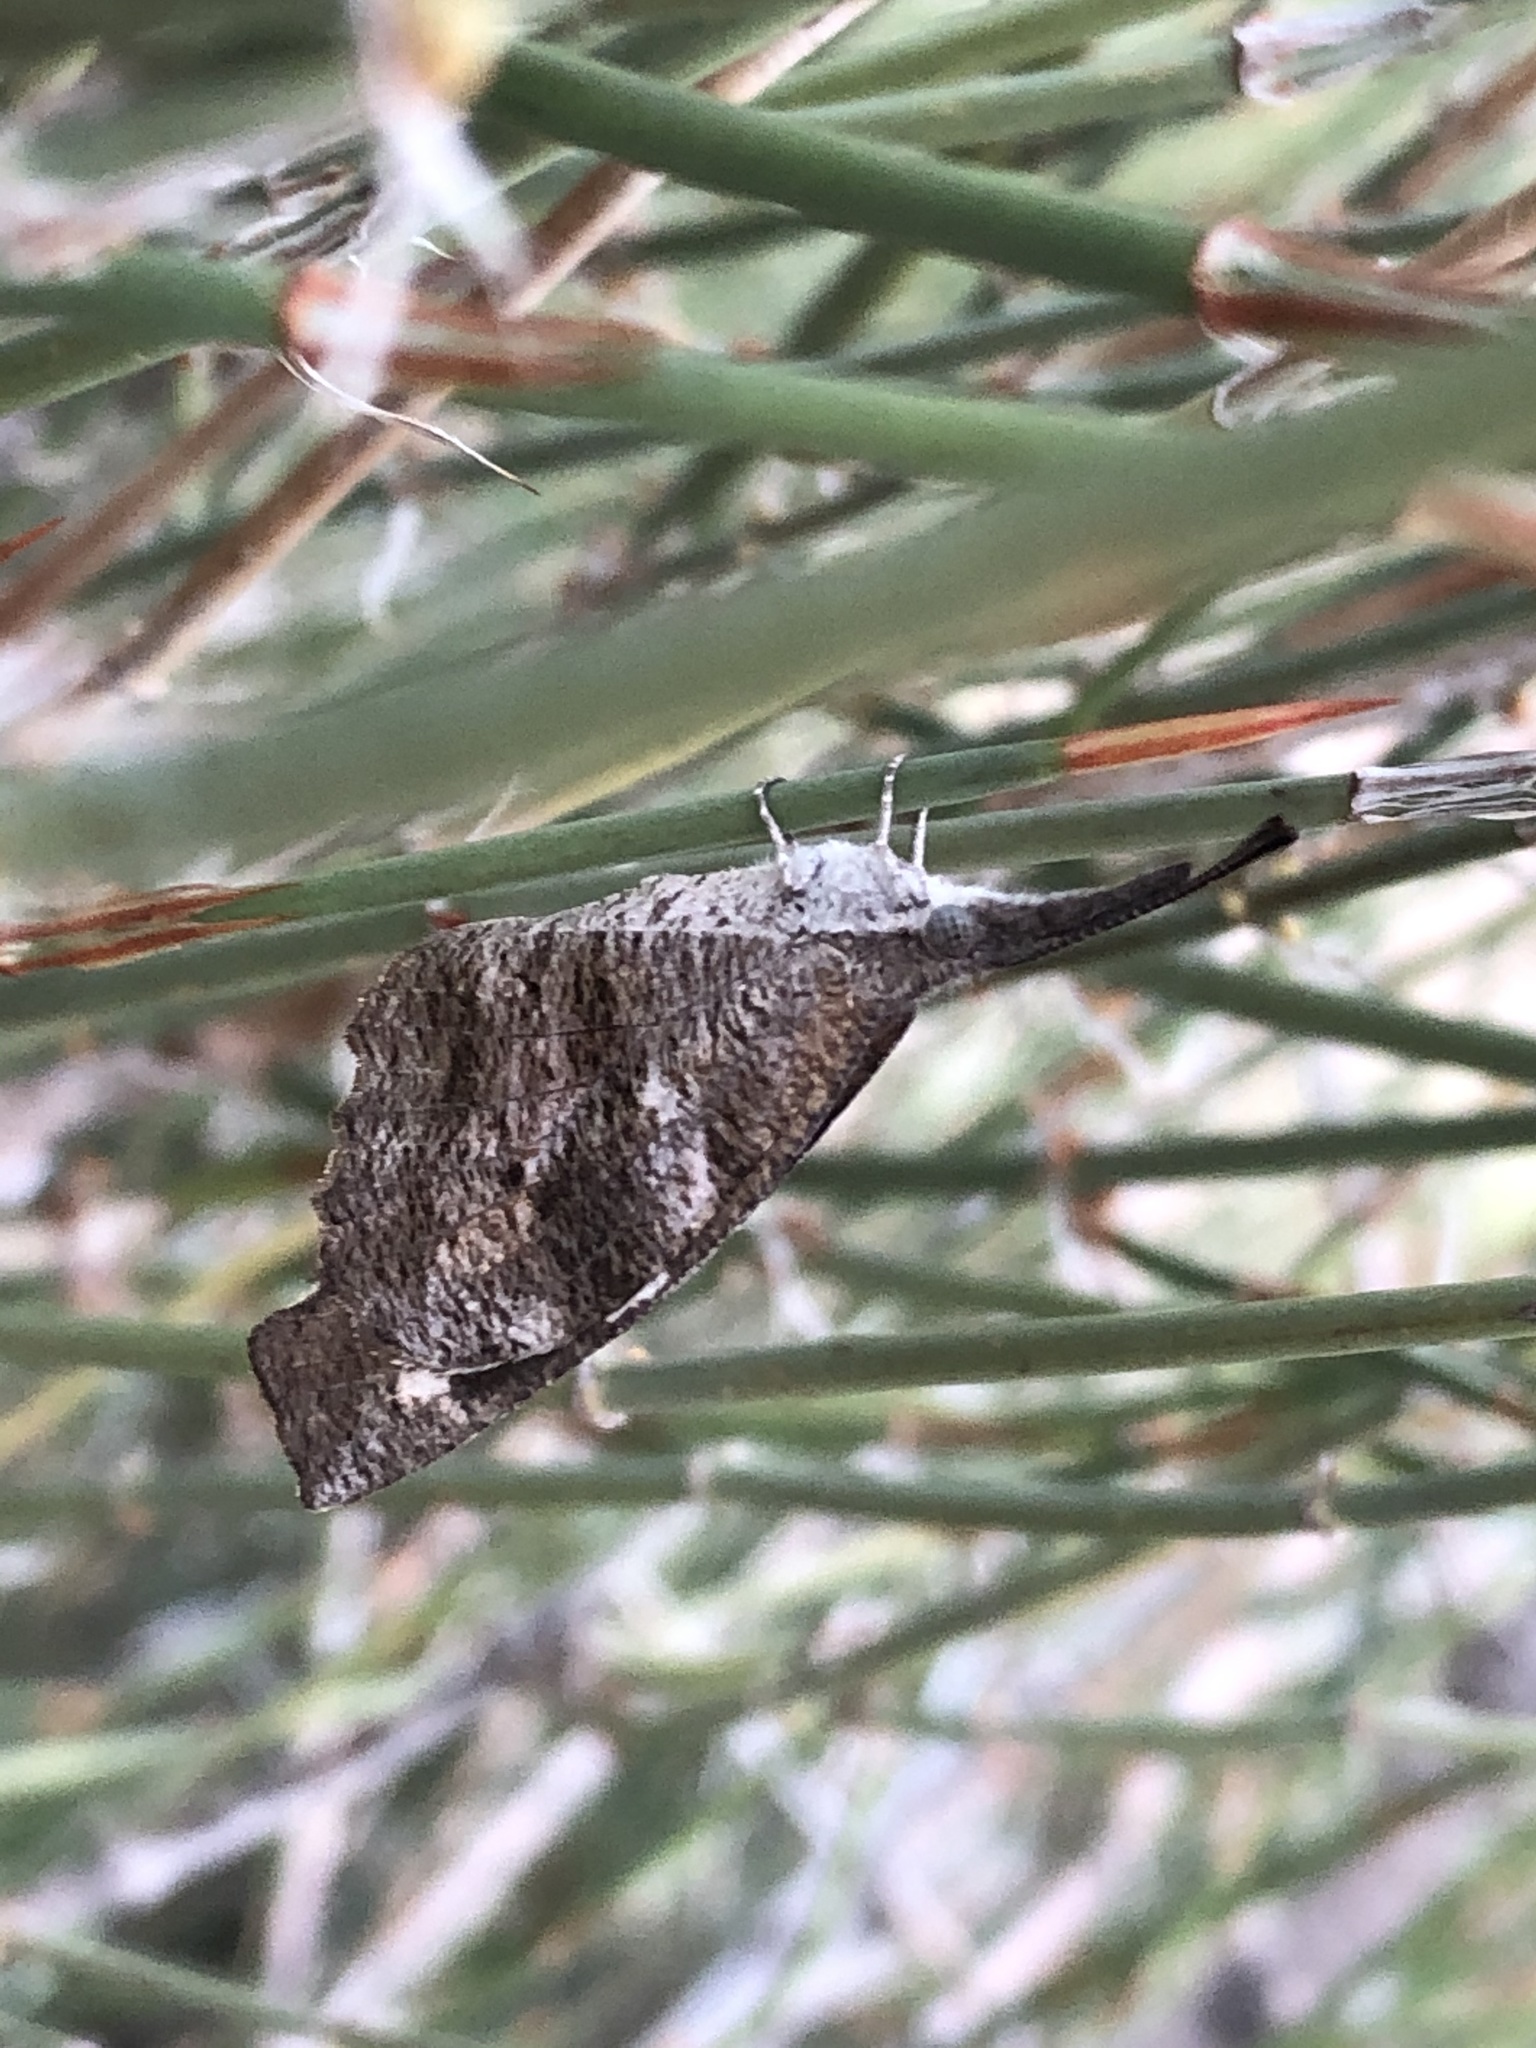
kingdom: Animalia
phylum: Arthropoda
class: Insecta
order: Lepidoptera
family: Nymphalidae
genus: Libytheana
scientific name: Libytheana carinenta
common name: American snout
